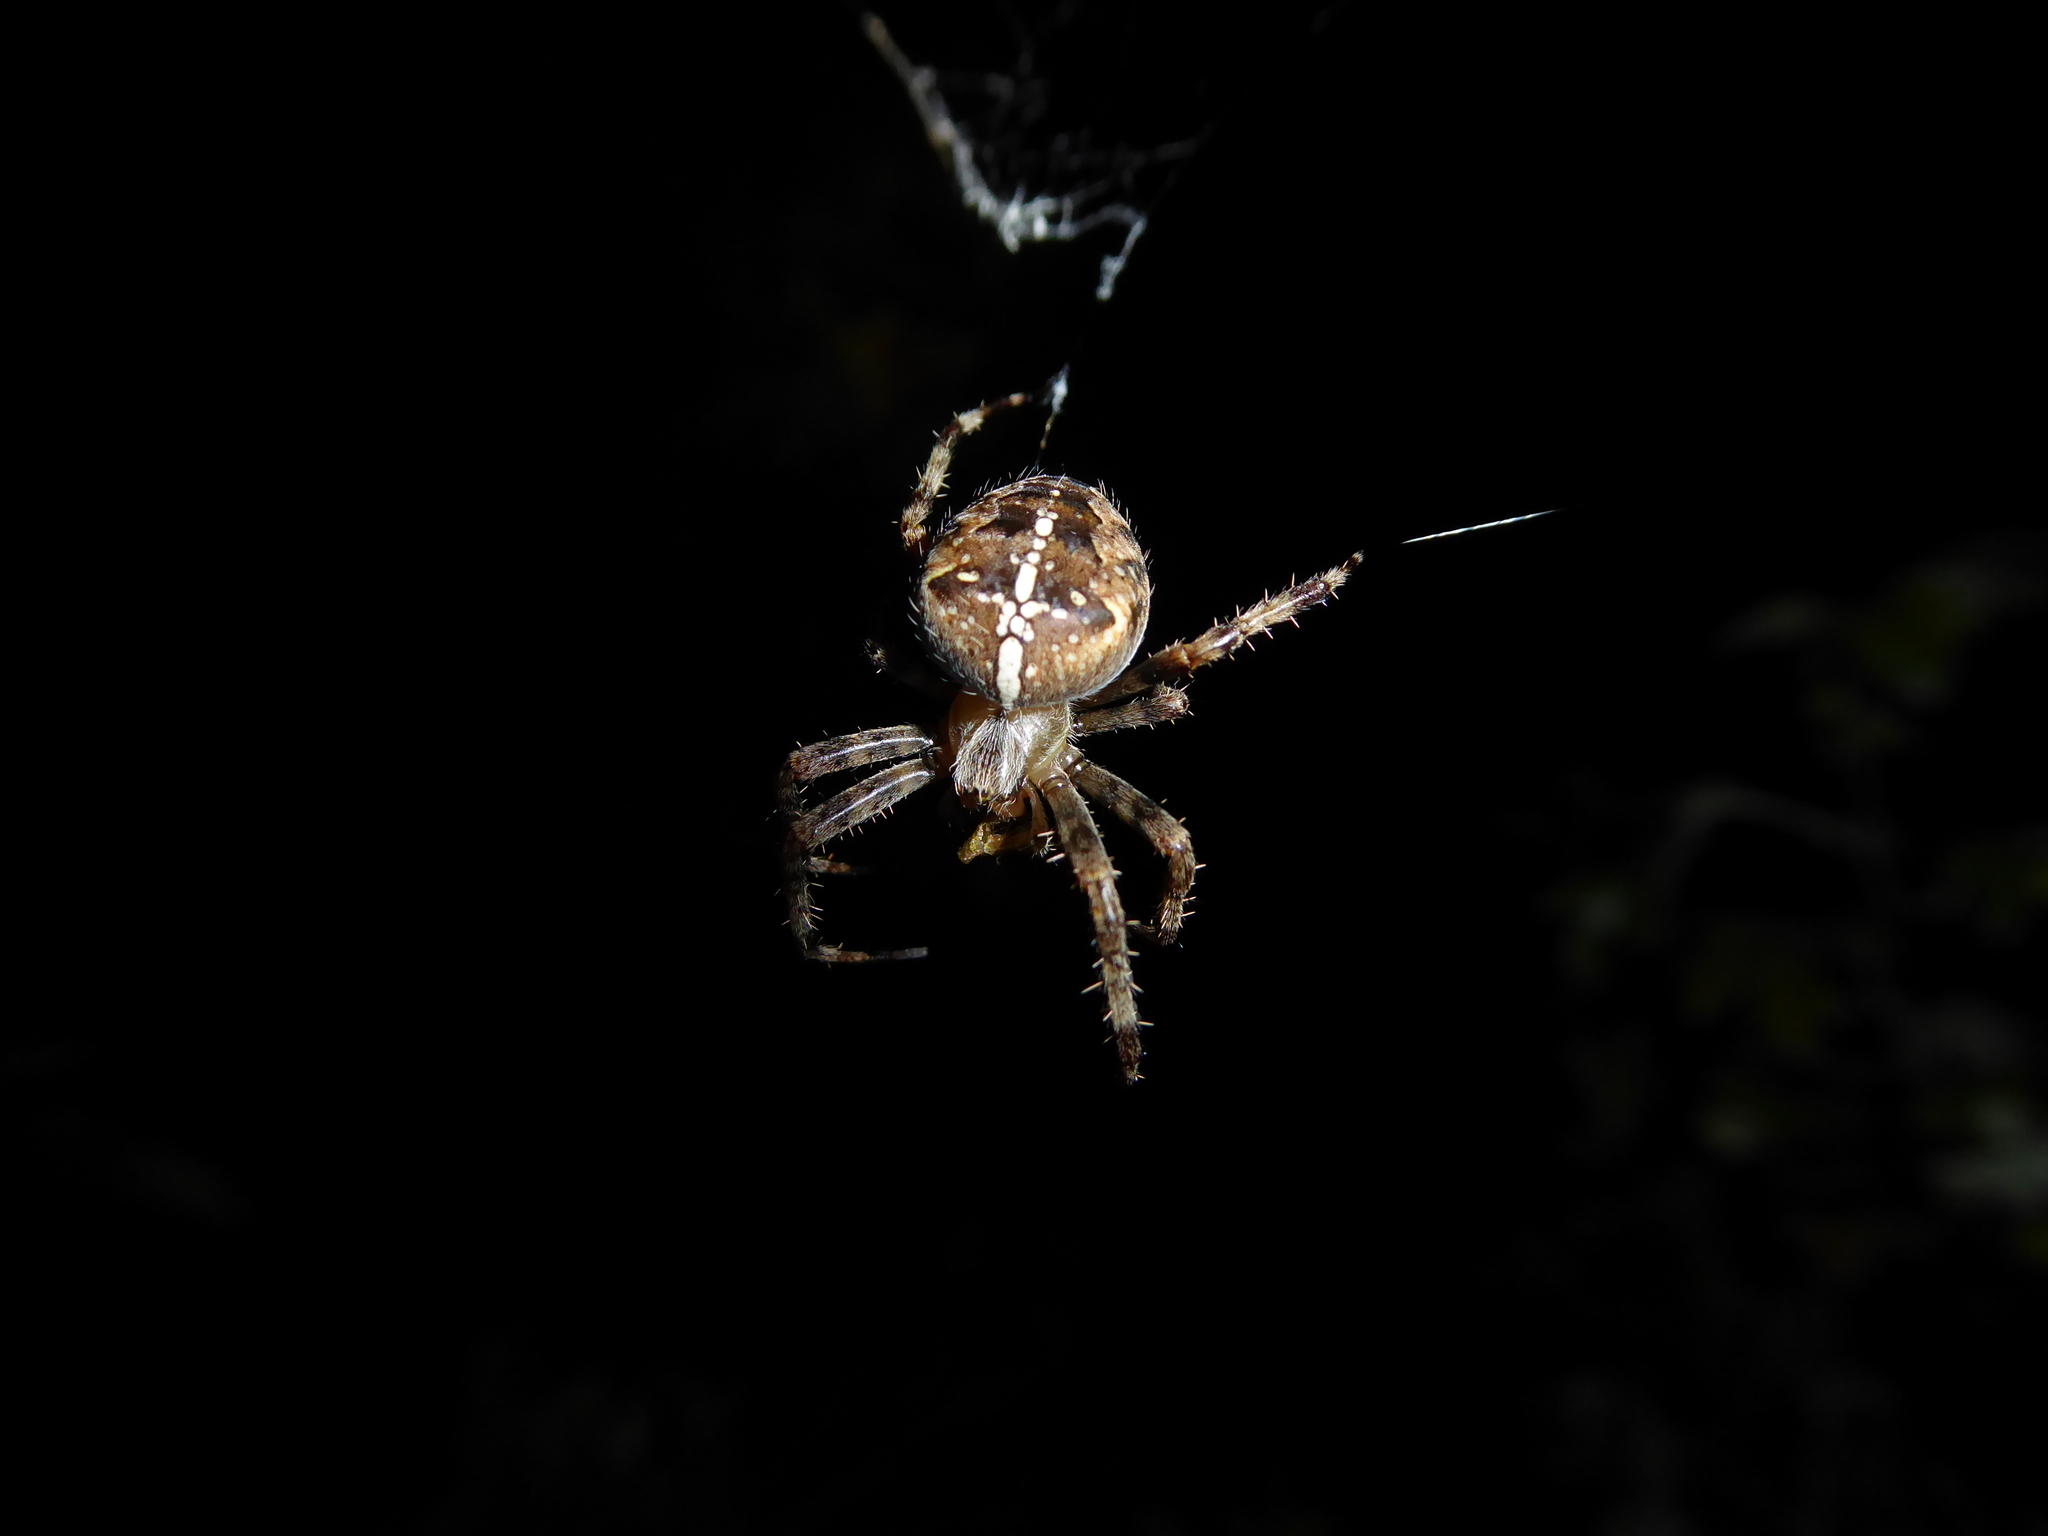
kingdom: Animalia
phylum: Arthropoda
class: Arachnida
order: Araneae
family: Araneidae
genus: Araneus
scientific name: Araneus diadematus
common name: Cross orbweaver
